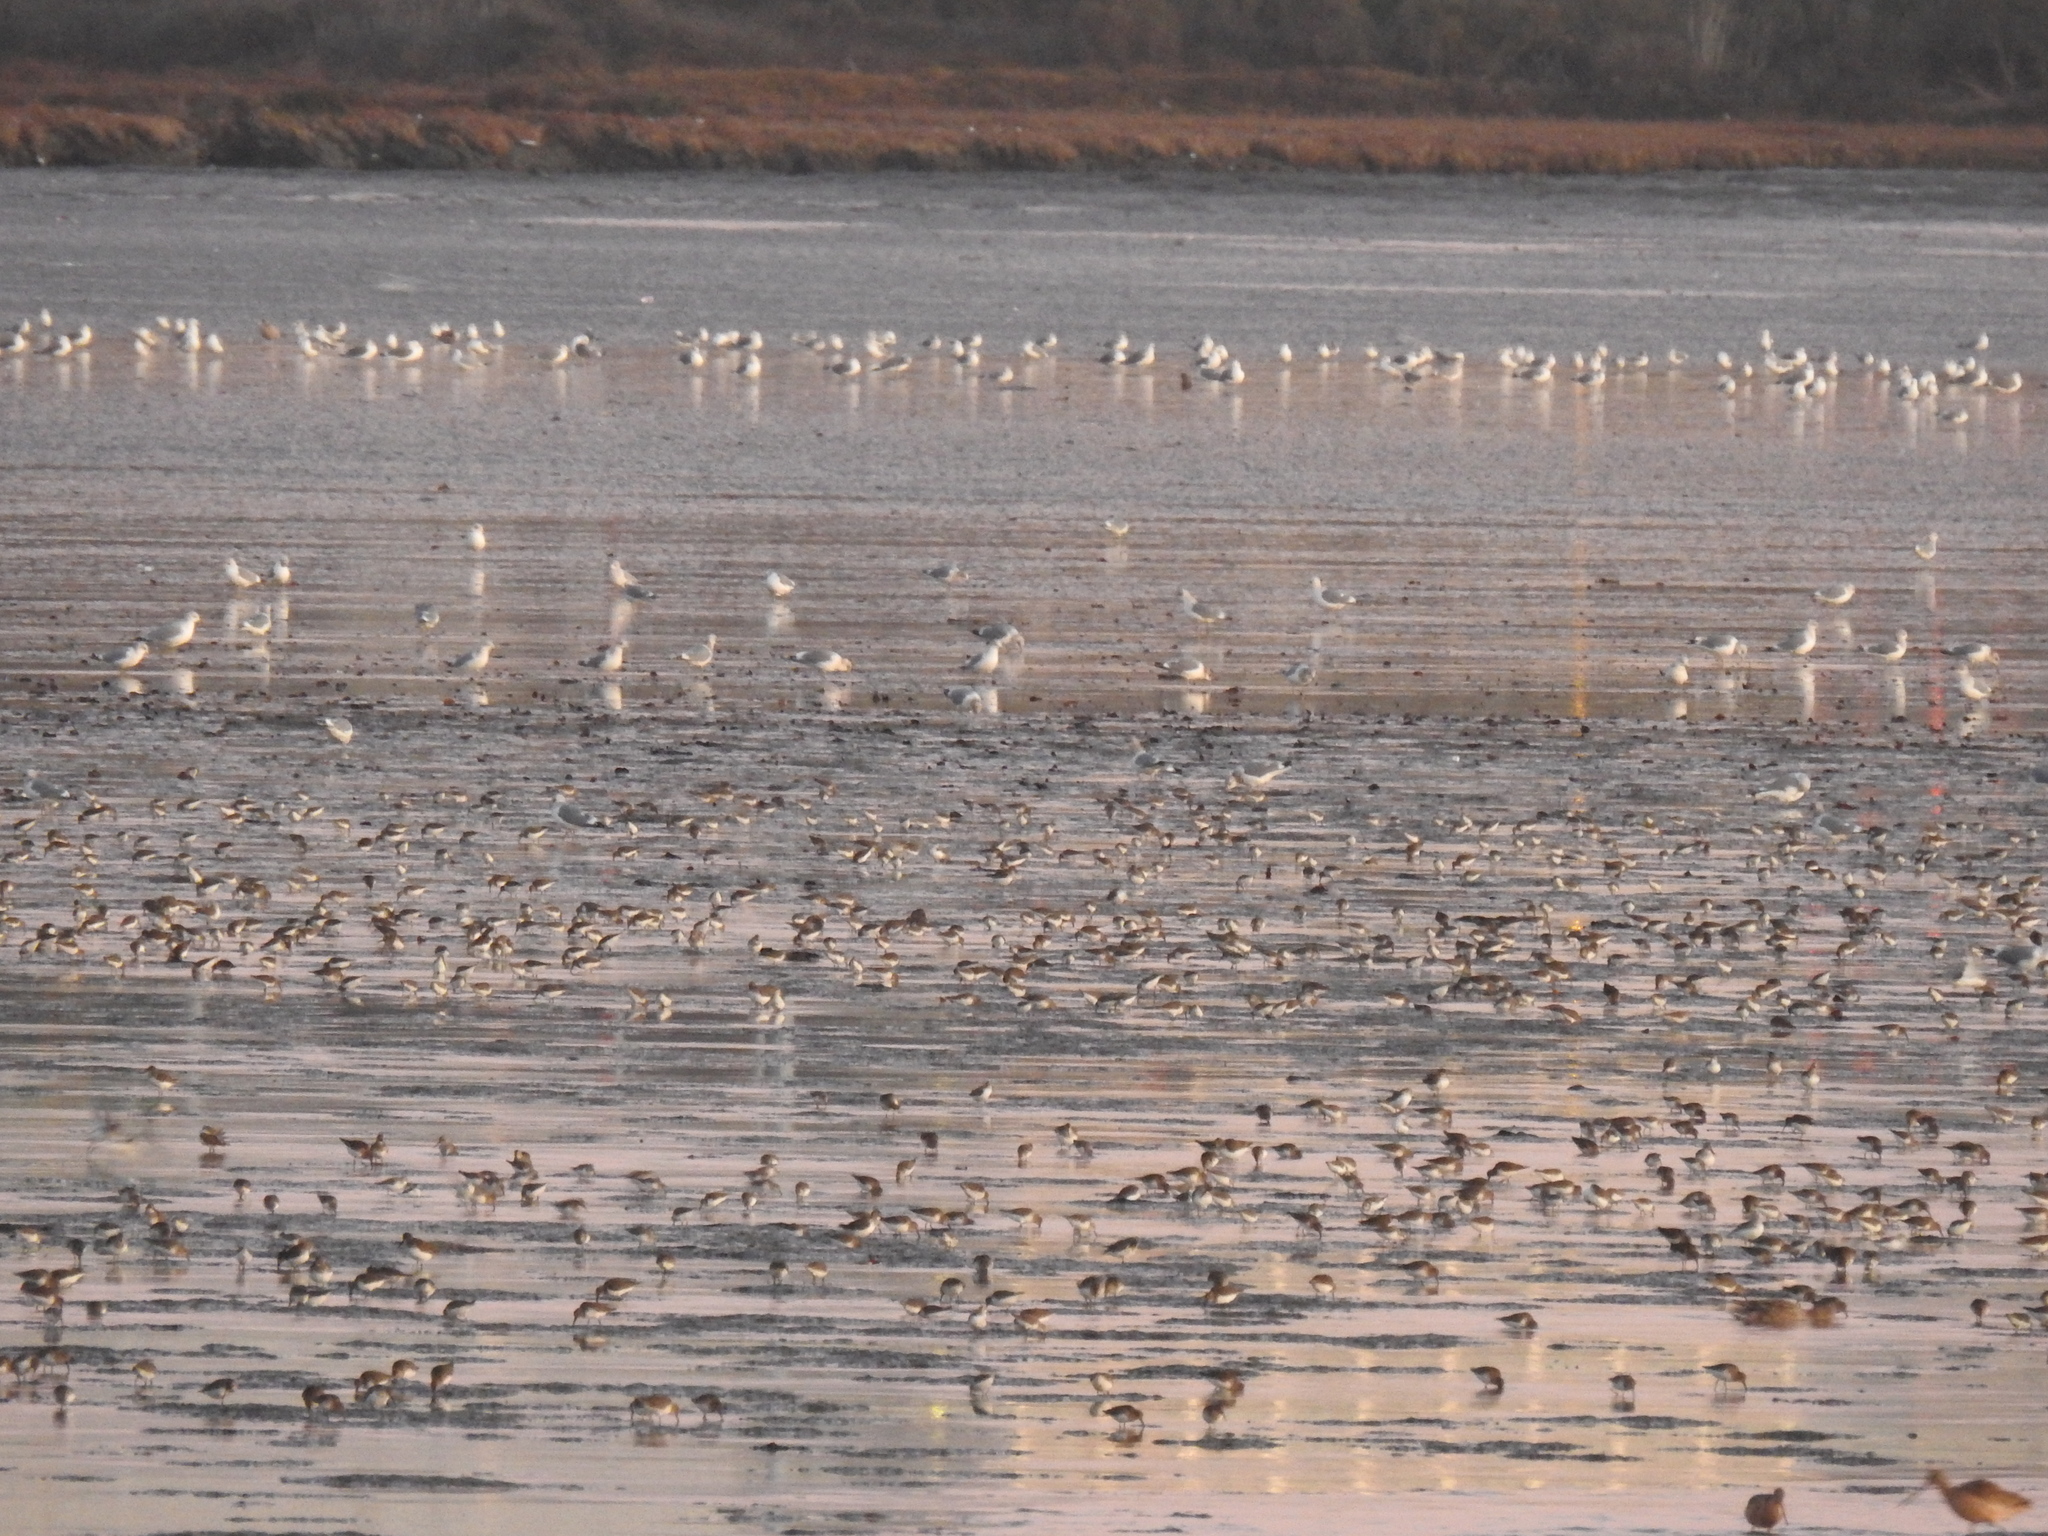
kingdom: Animalia
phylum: Chordata
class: Aves
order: Charadriiformes
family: Laridae
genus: Larus
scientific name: Larus
